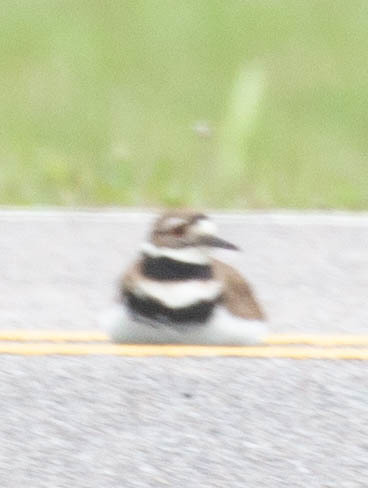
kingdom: Animalia
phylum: Chordata
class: Aves
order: Charadriiformes
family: Charadriidae
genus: Charadrius
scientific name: Charadrius vociferus
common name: Killdeer
